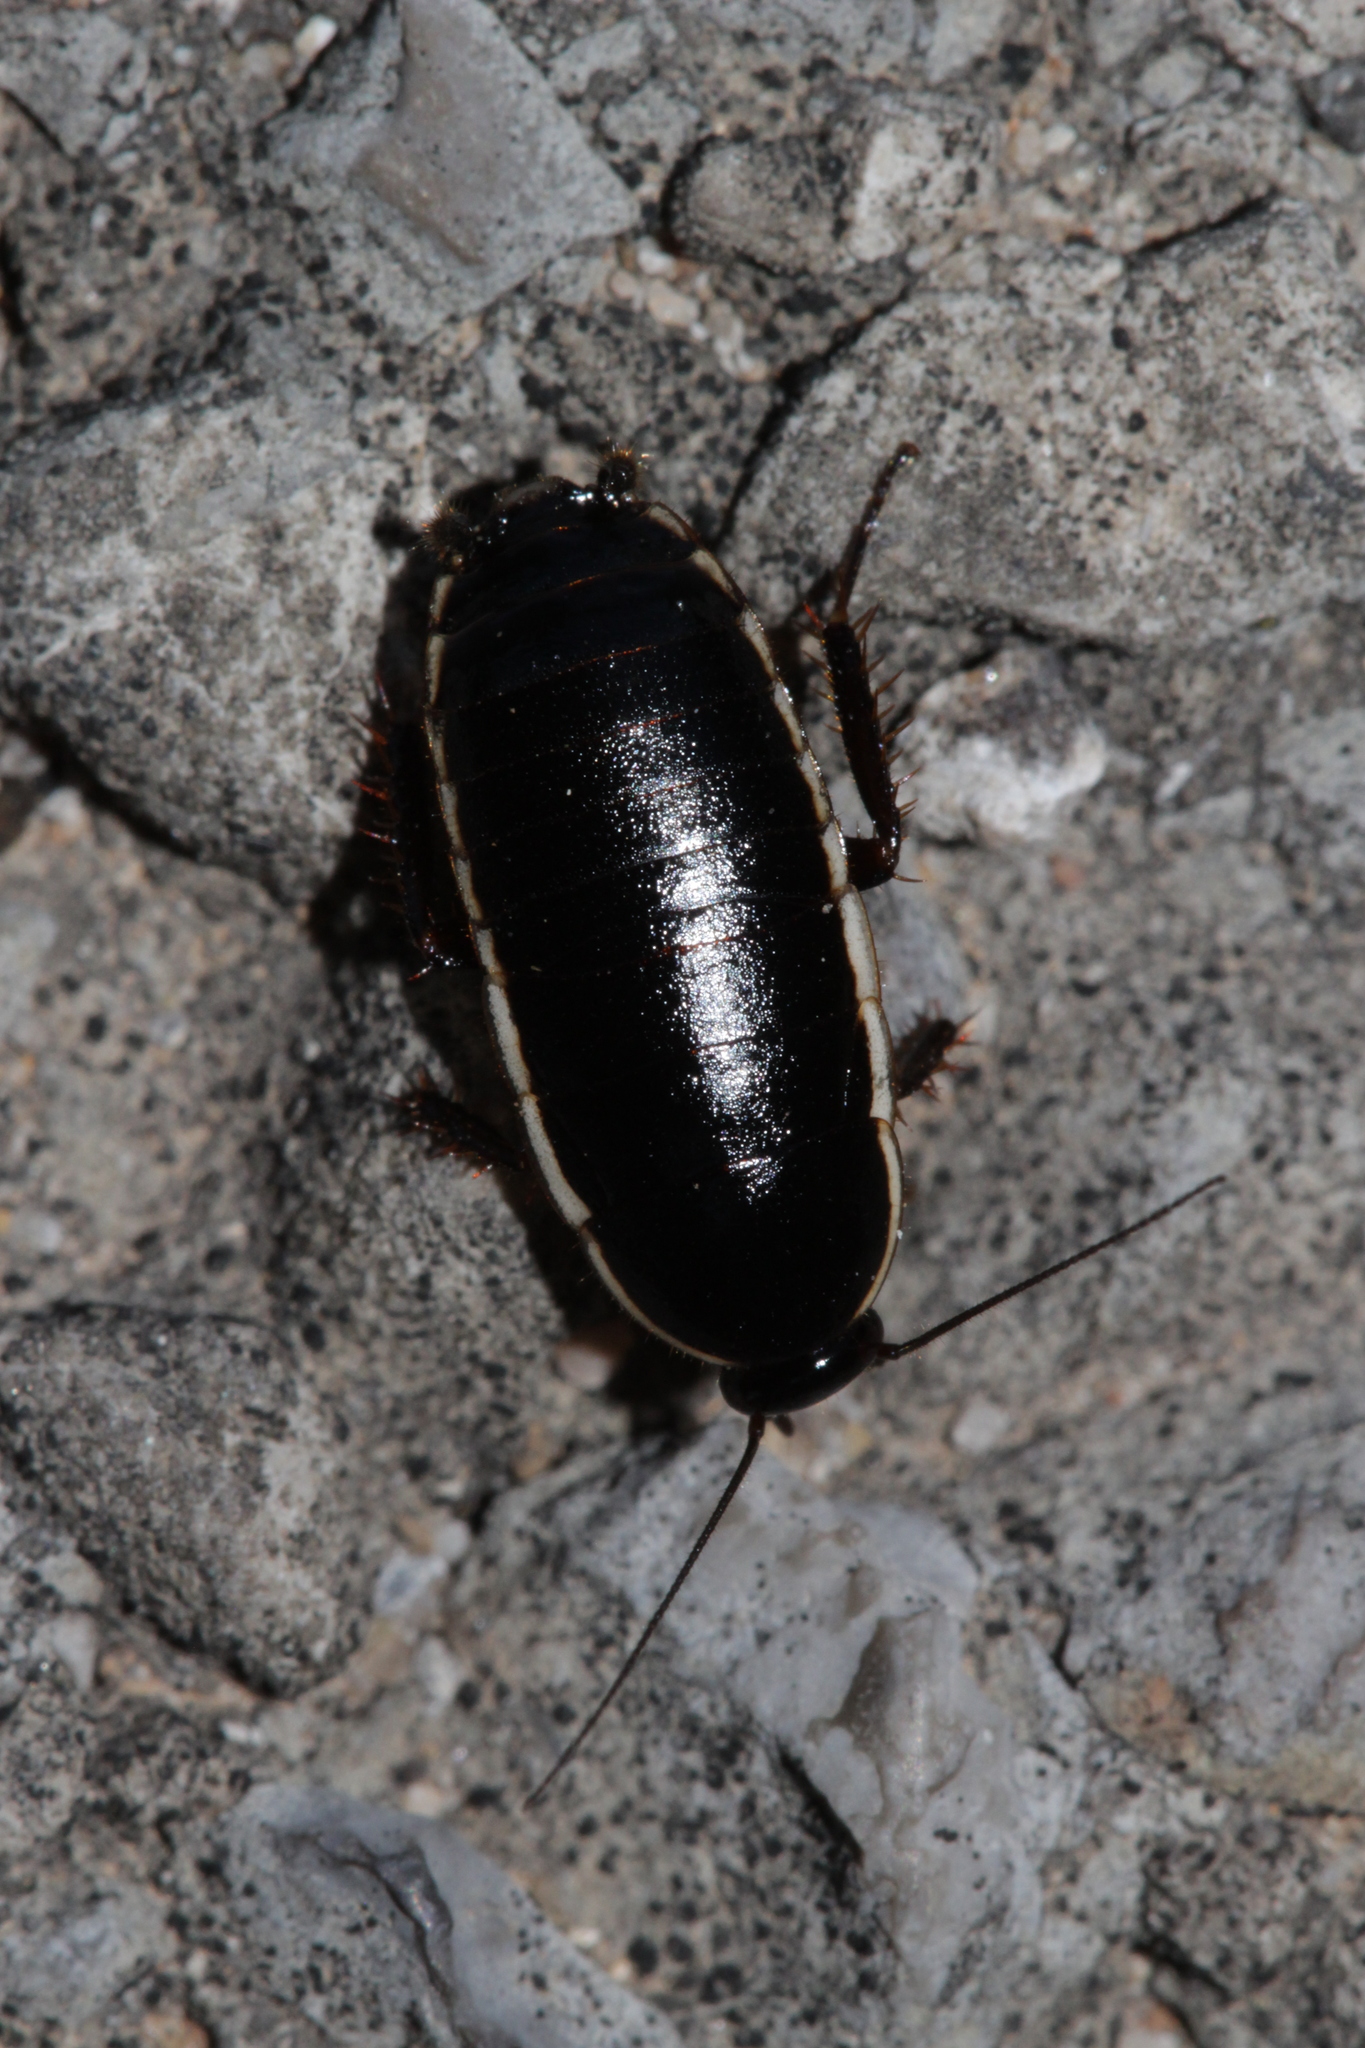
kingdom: Animalia
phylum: Arthropoda
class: Insecta
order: Blattodea
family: Ectobiidae
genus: Loboptera
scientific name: Loboptera decipiens
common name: Lobe-winged cockroach
